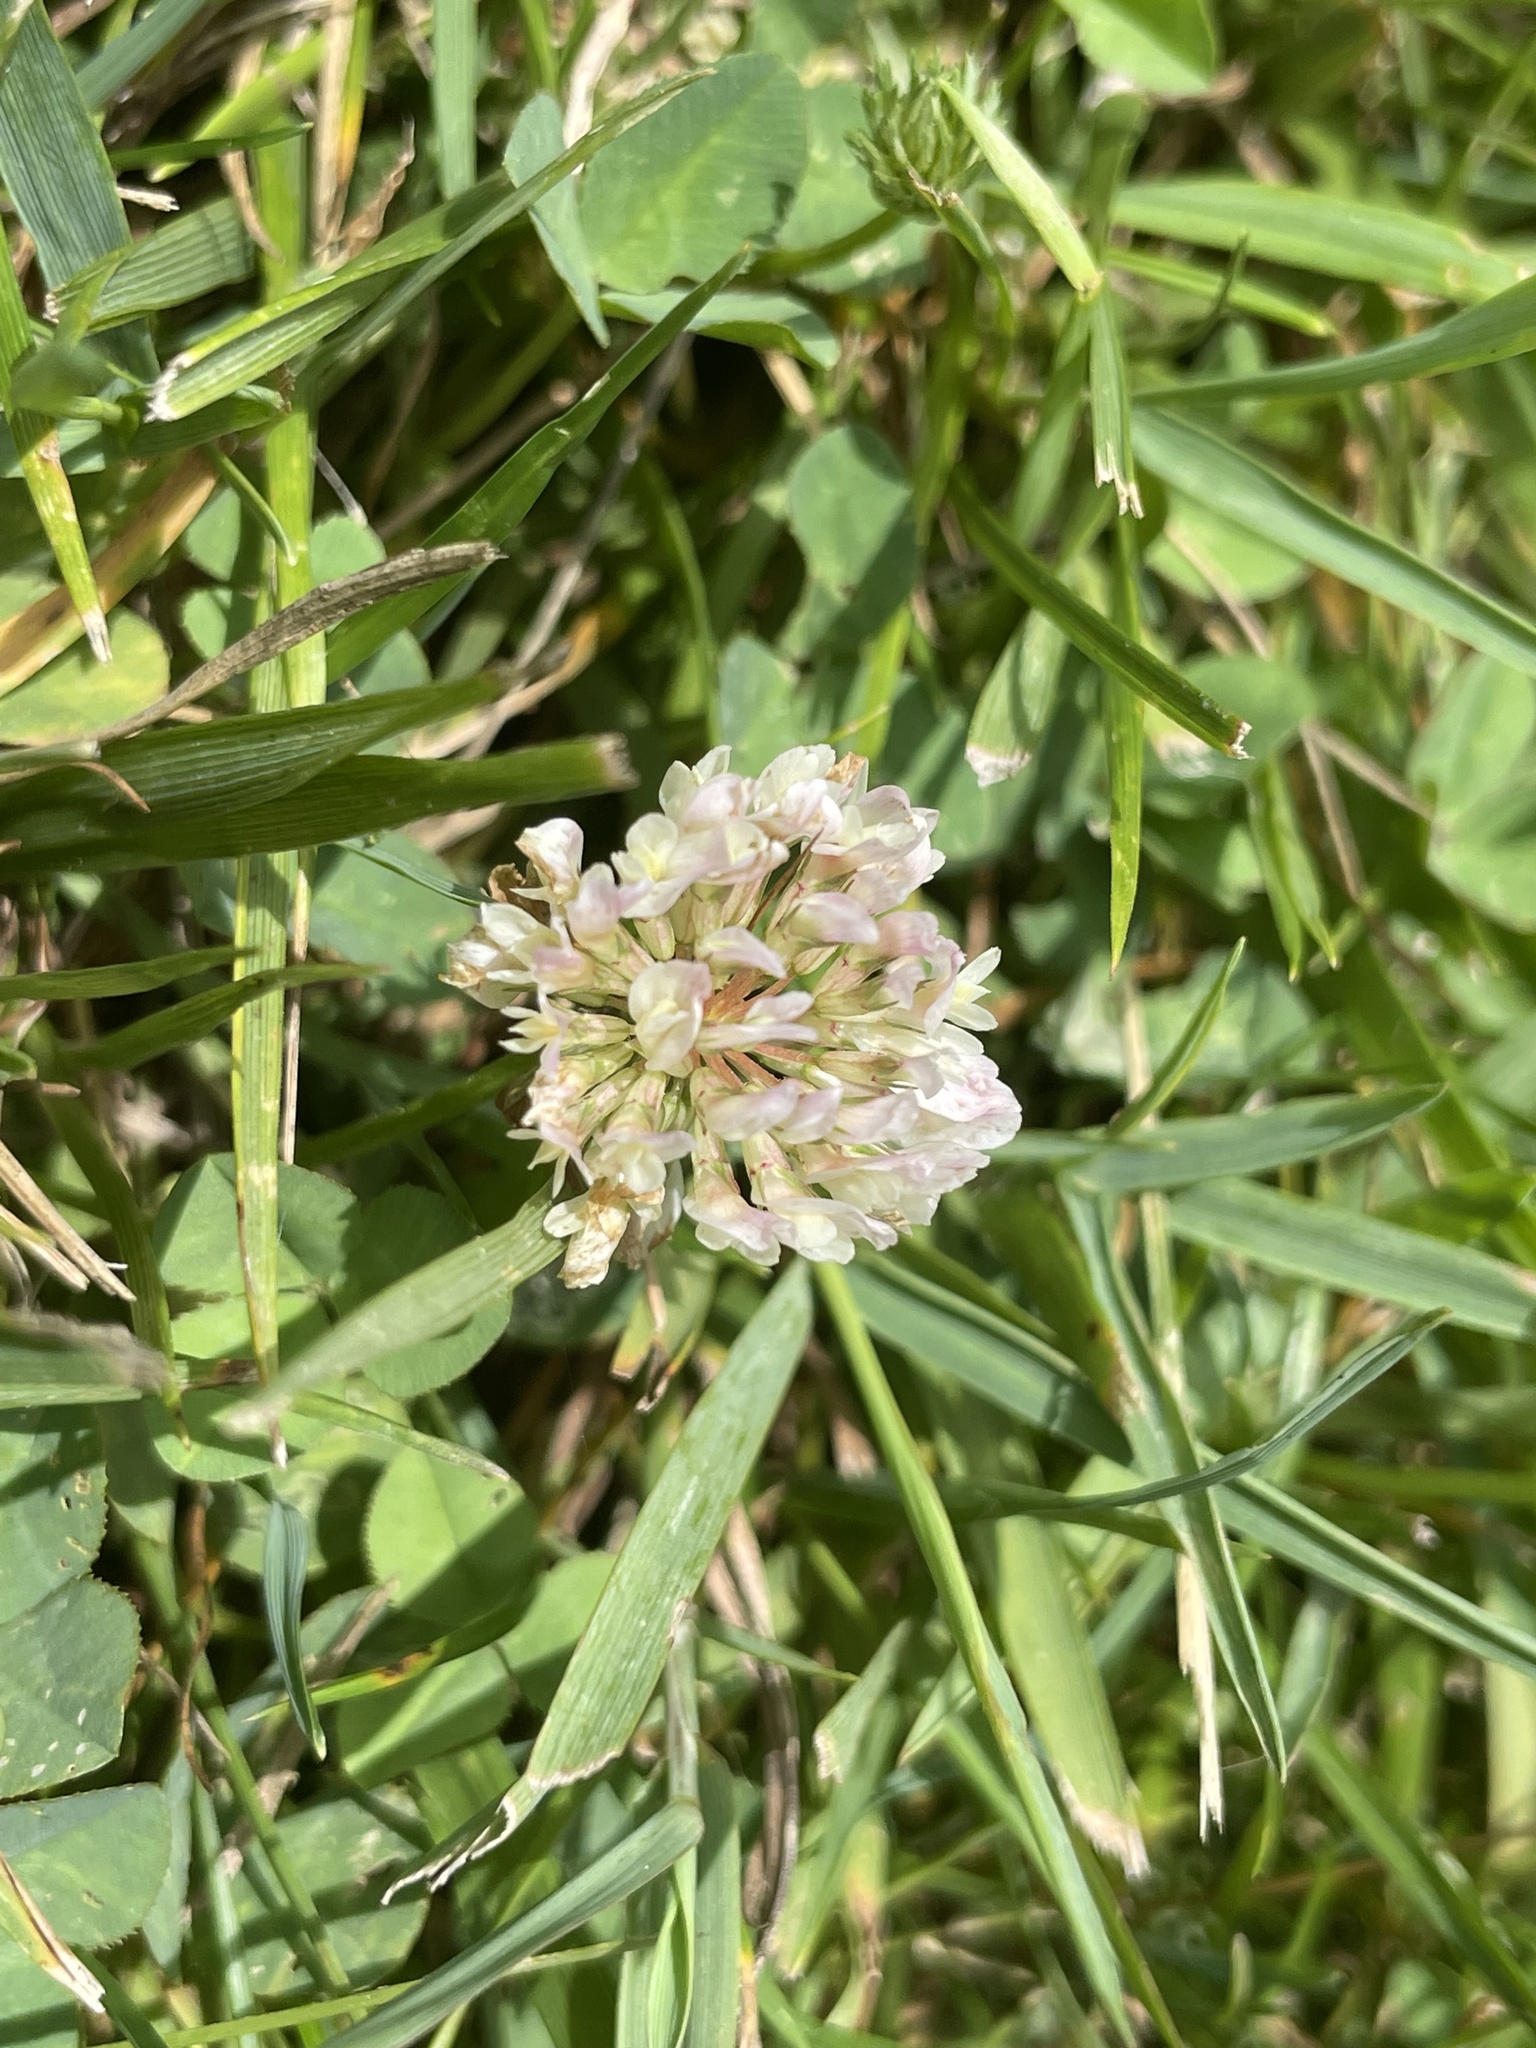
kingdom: Plantae
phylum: Tracheophyta
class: Magnoliopsida
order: Fabales
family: Fabaceae
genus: Trifolium
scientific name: Trifolium repens
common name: White clover
